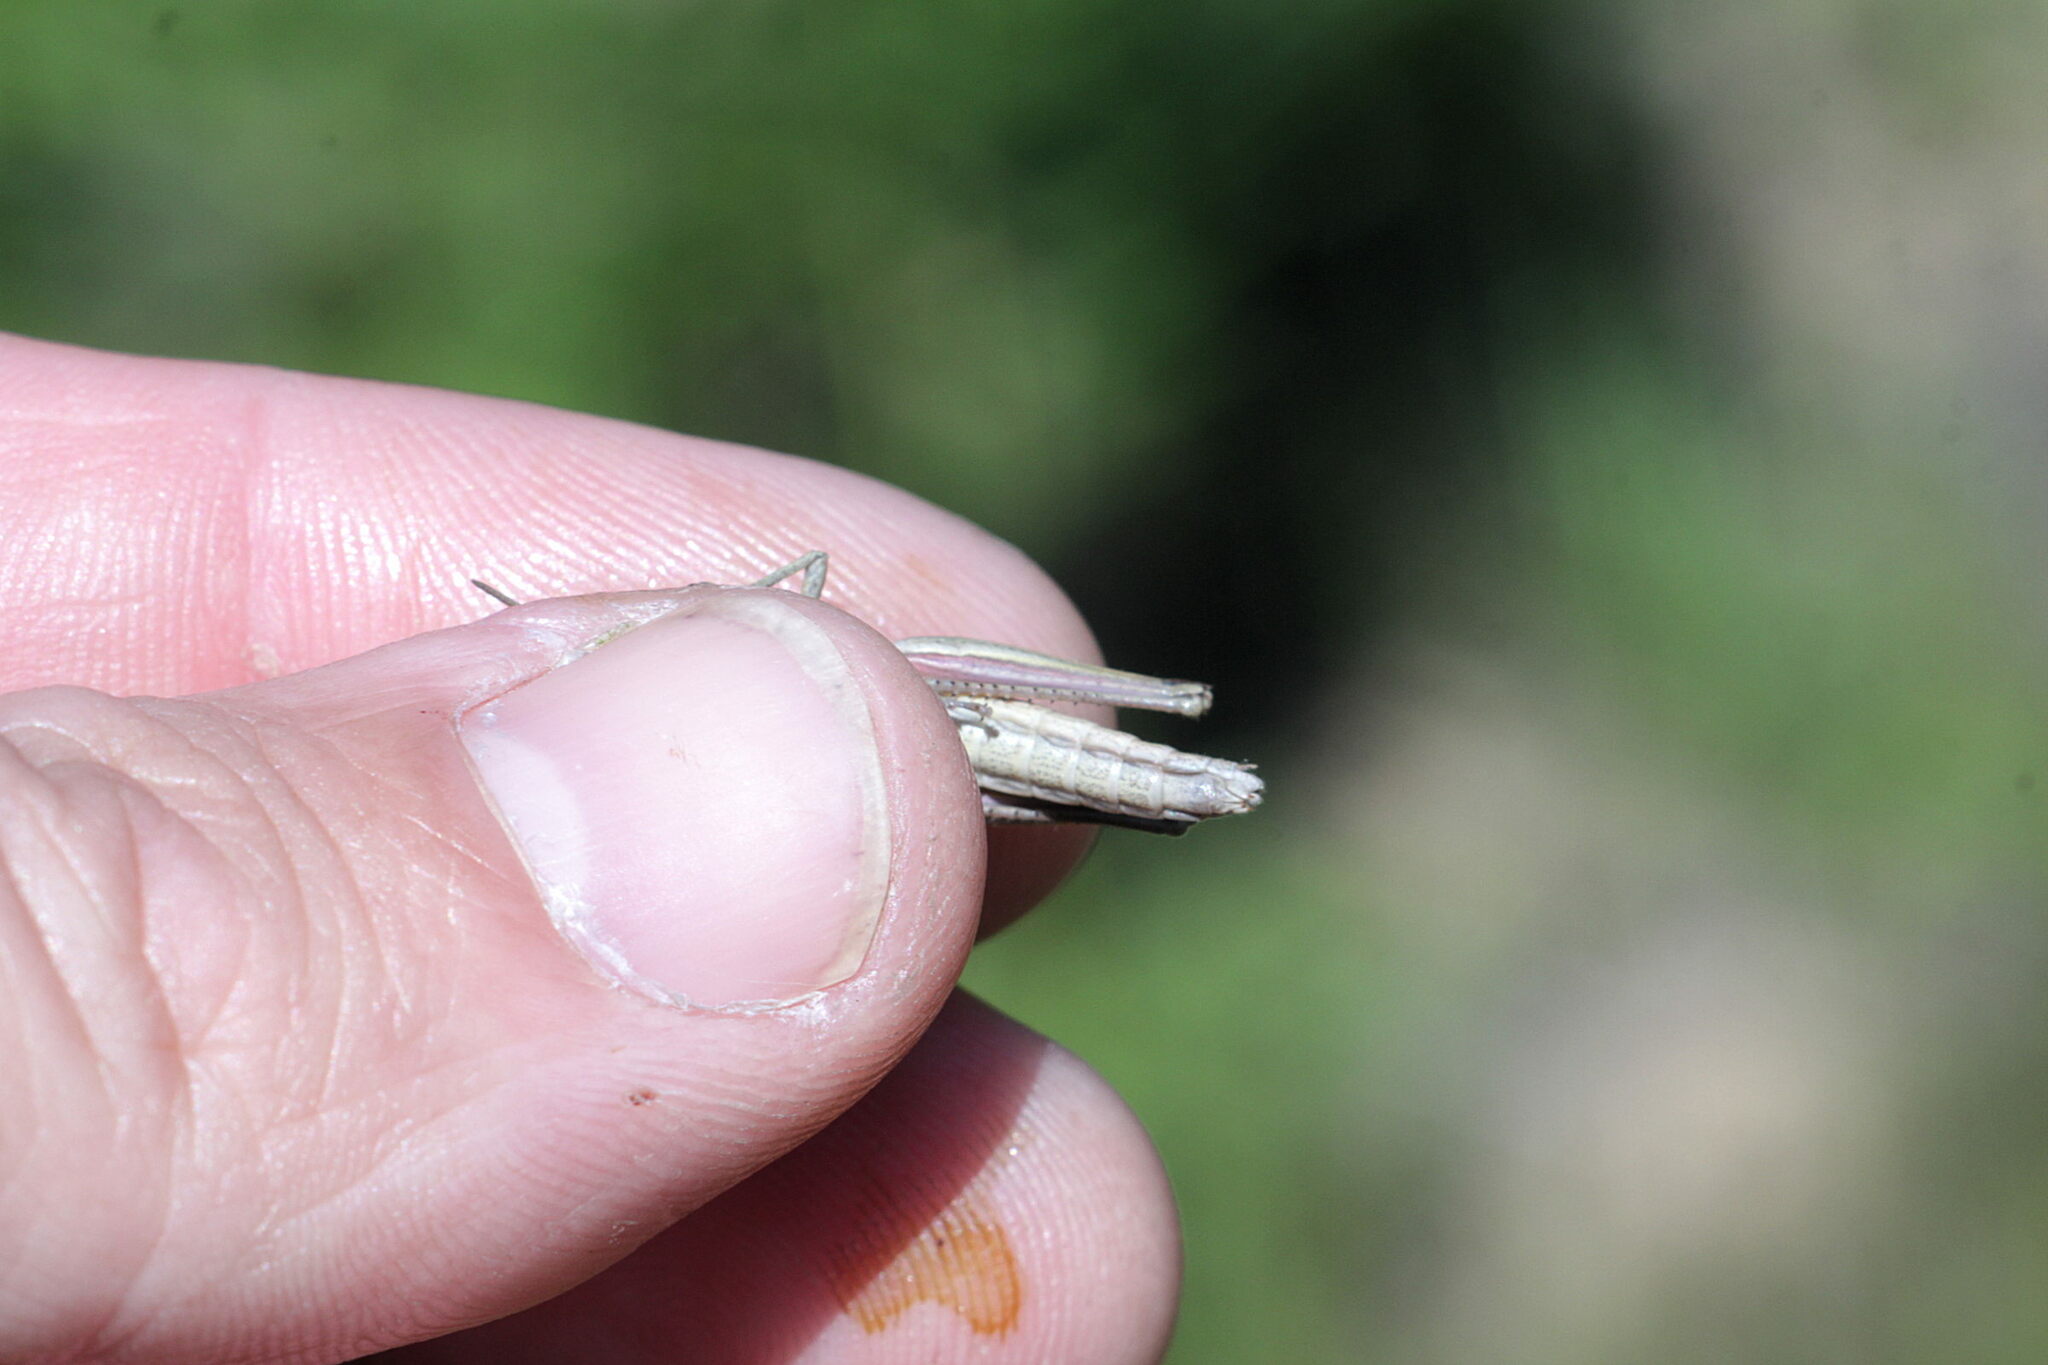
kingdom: Animalia
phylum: Arthropoda
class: Insecta
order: Orthoptera
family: Acrididae
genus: Chrysochraon
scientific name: Chrysochraon dispar
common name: Large gold grasshopper
